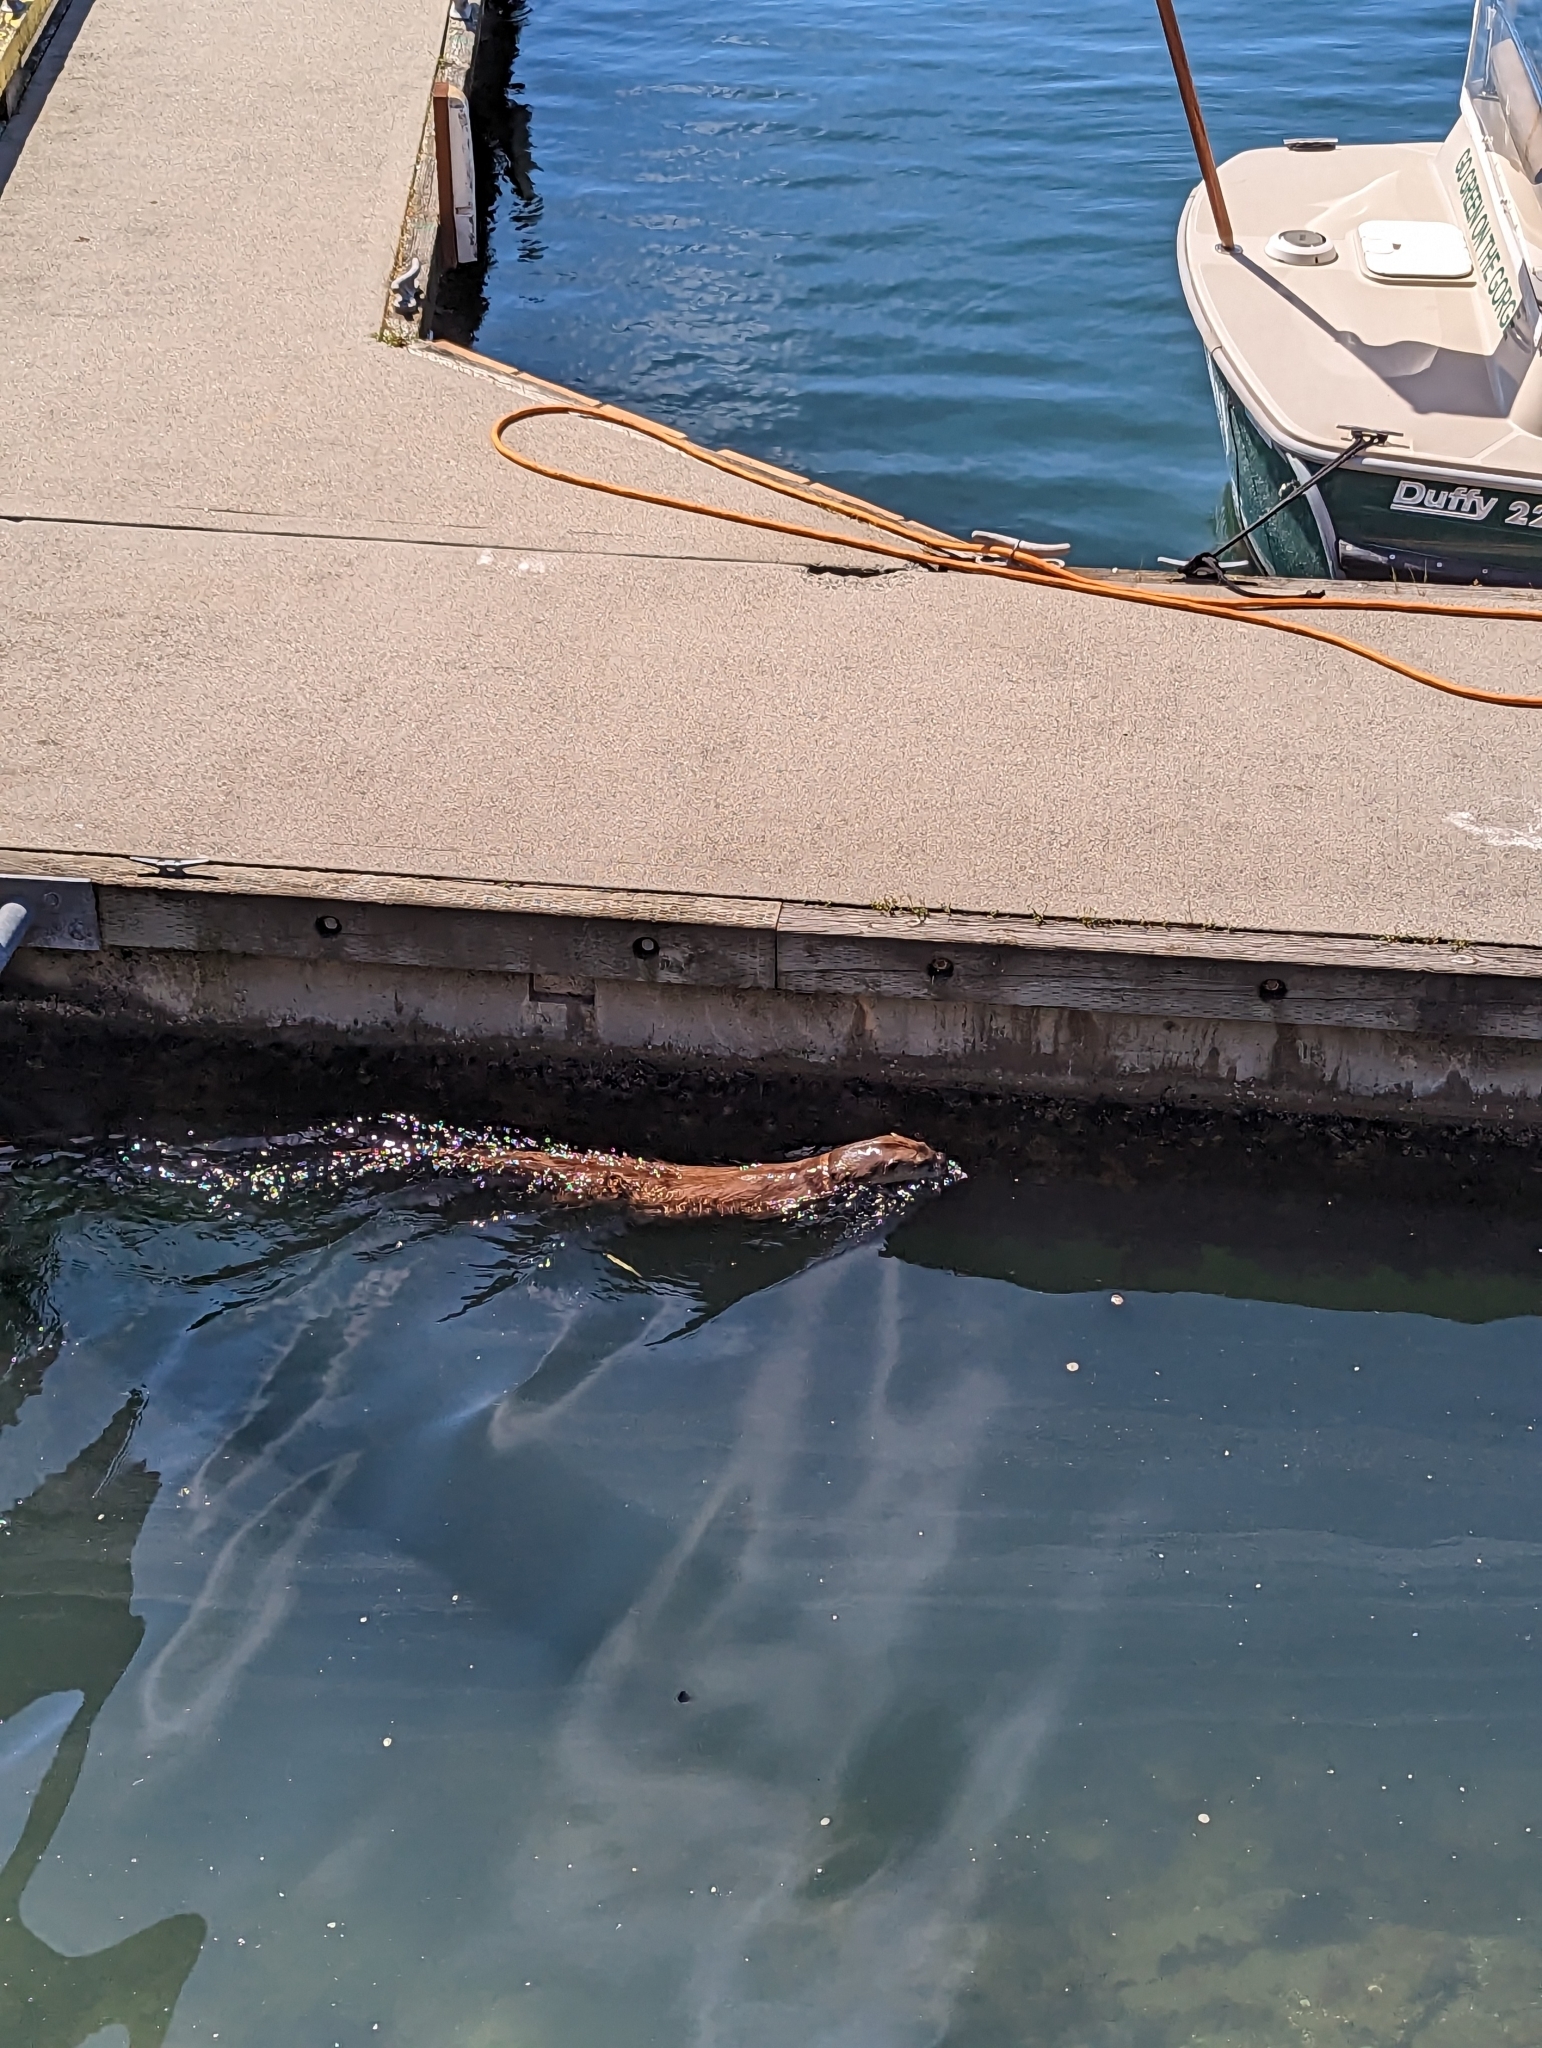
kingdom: Animalia
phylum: Chordata
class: Mammalia
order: Carnivora
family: Mustelidae
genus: Lontra
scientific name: Lontra canadensis
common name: North american river otter
